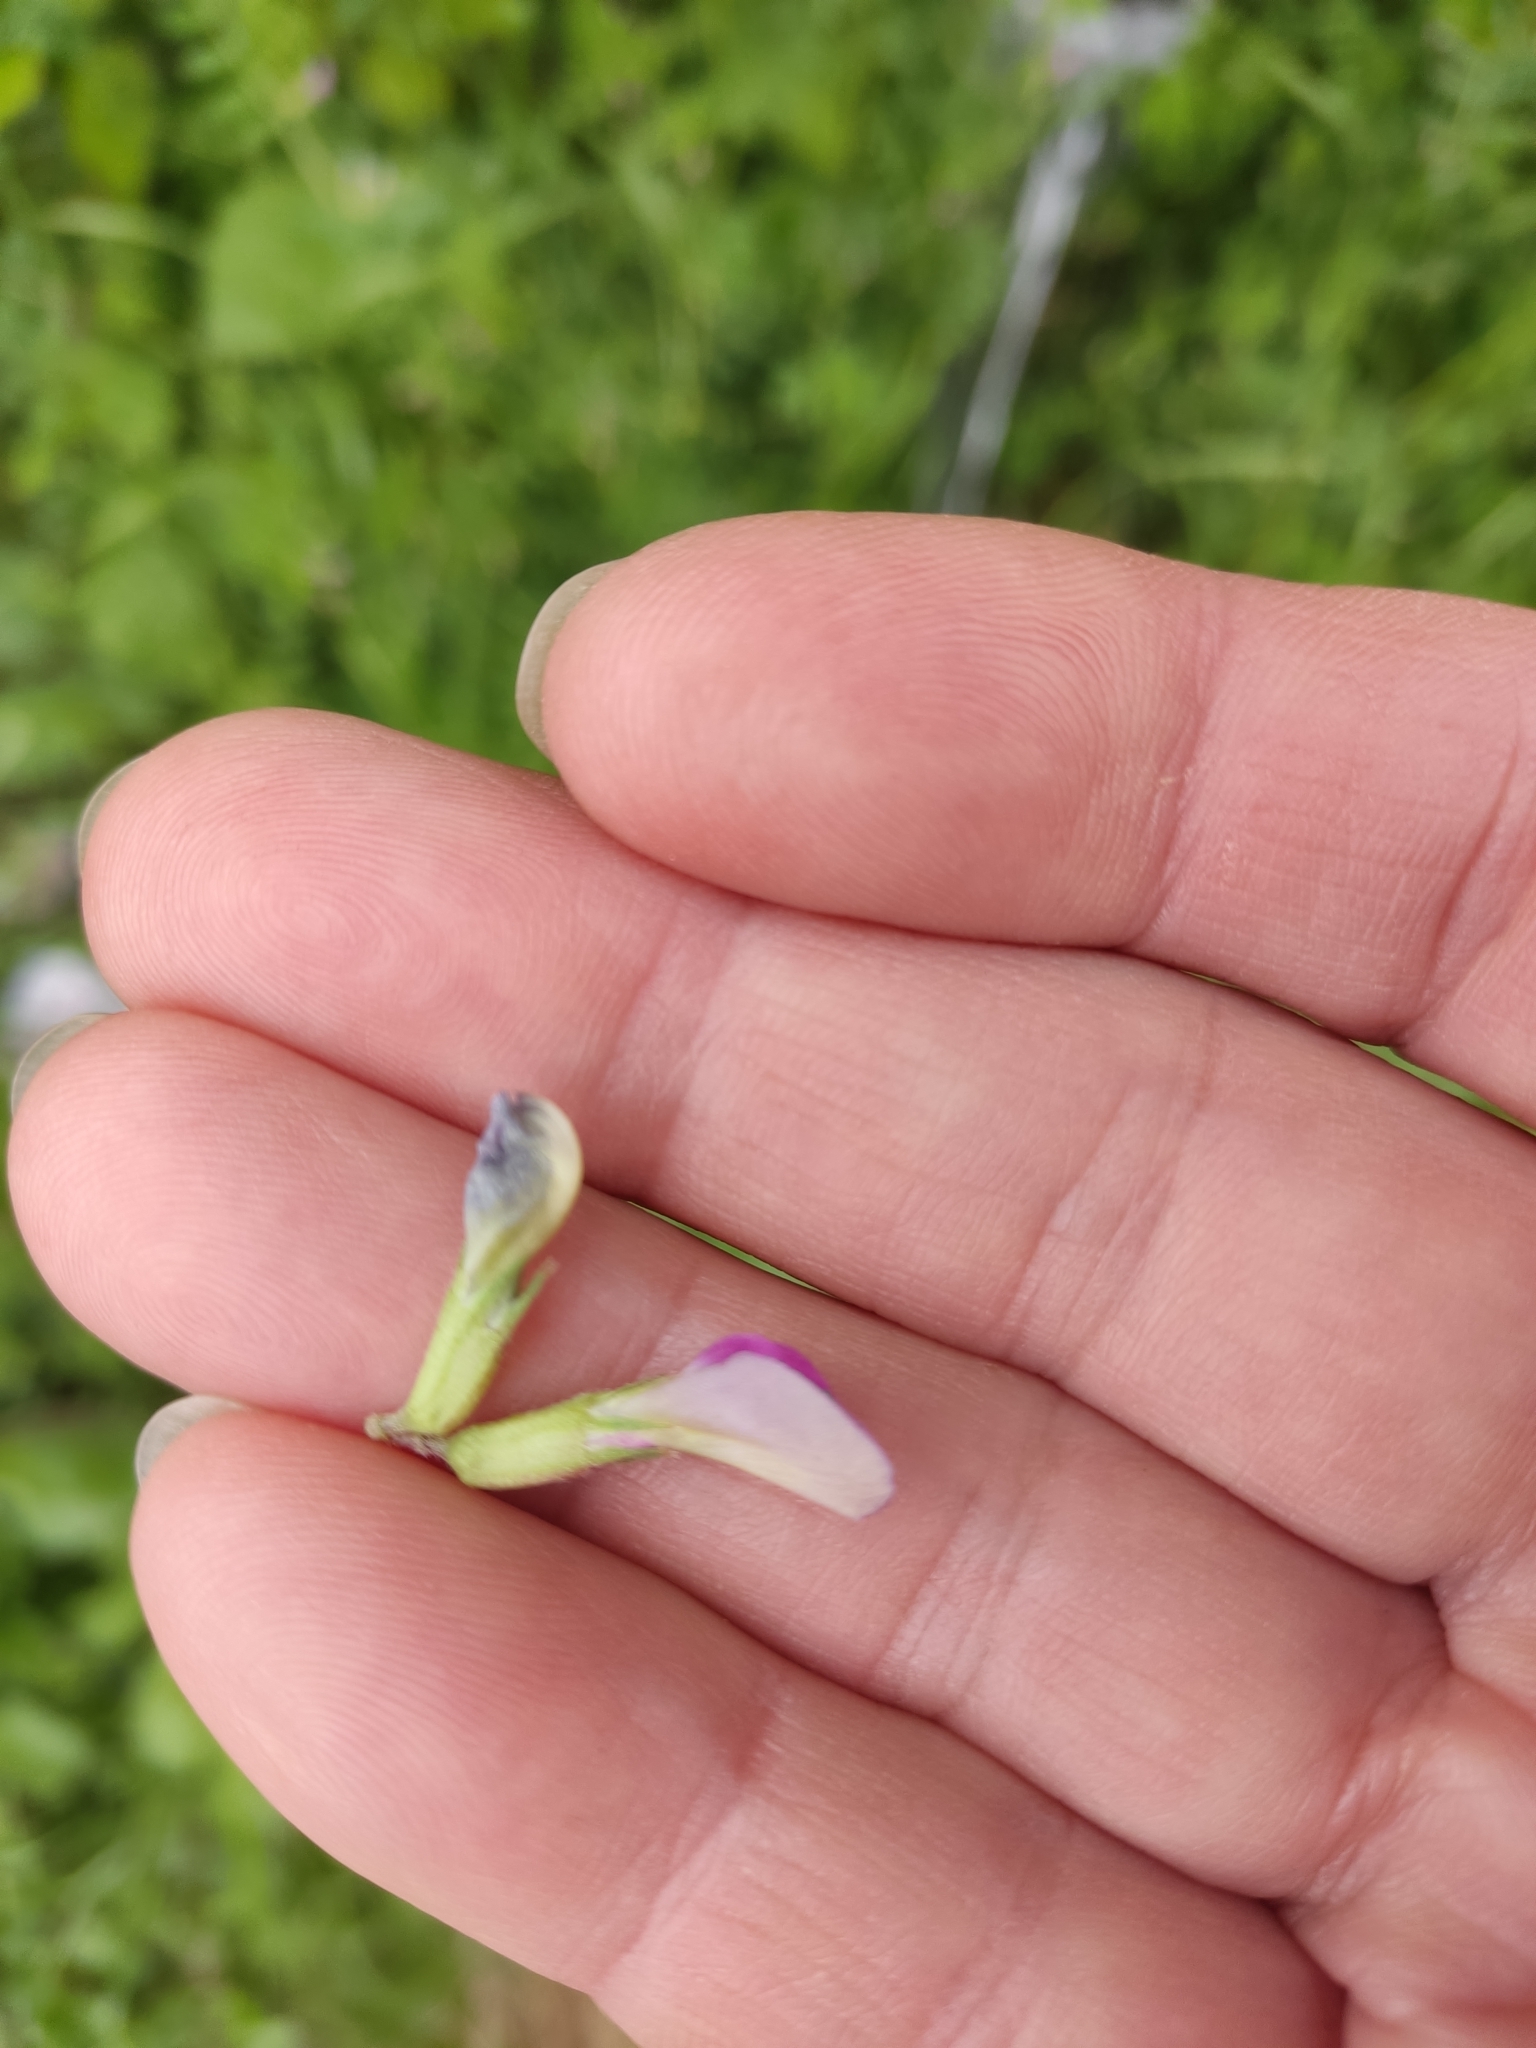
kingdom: Plantae
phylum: Tracheophyta
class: Magnoliopsida
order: Fabales
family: Fabaceae
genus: Vicia
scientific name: Vicia sativa
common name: Garden vetch
